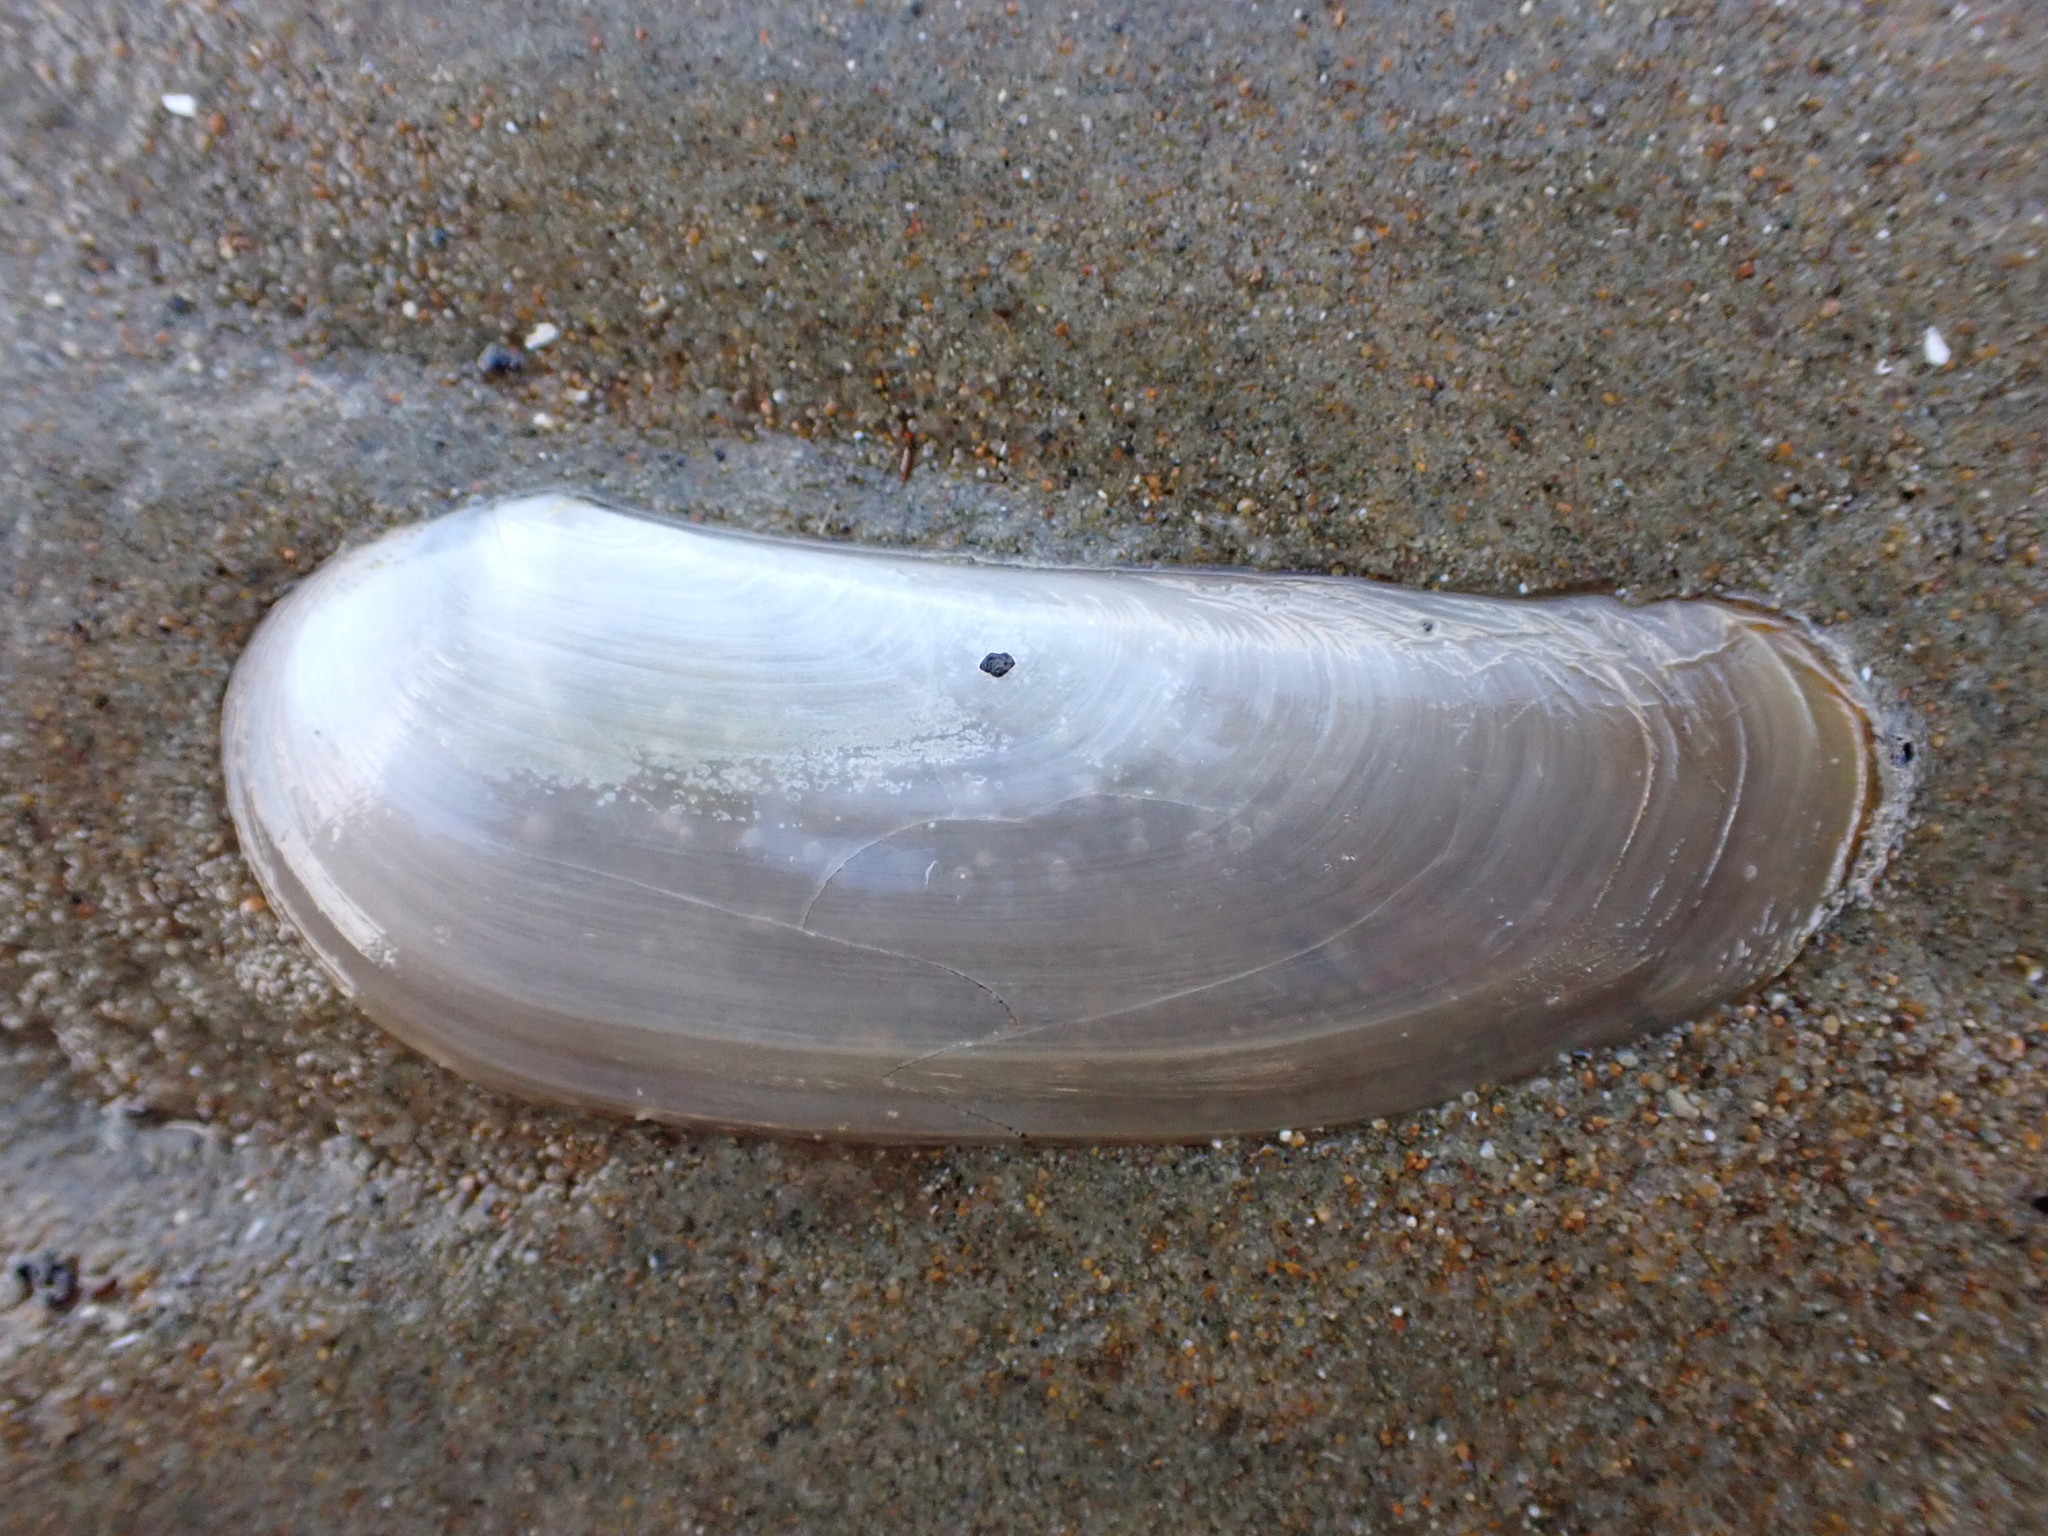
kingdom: Animalia
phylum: Mollusca
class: Bivalvia
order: Venerida
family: Mactridae
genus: Zenatia
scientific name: Zenatia acinaces
